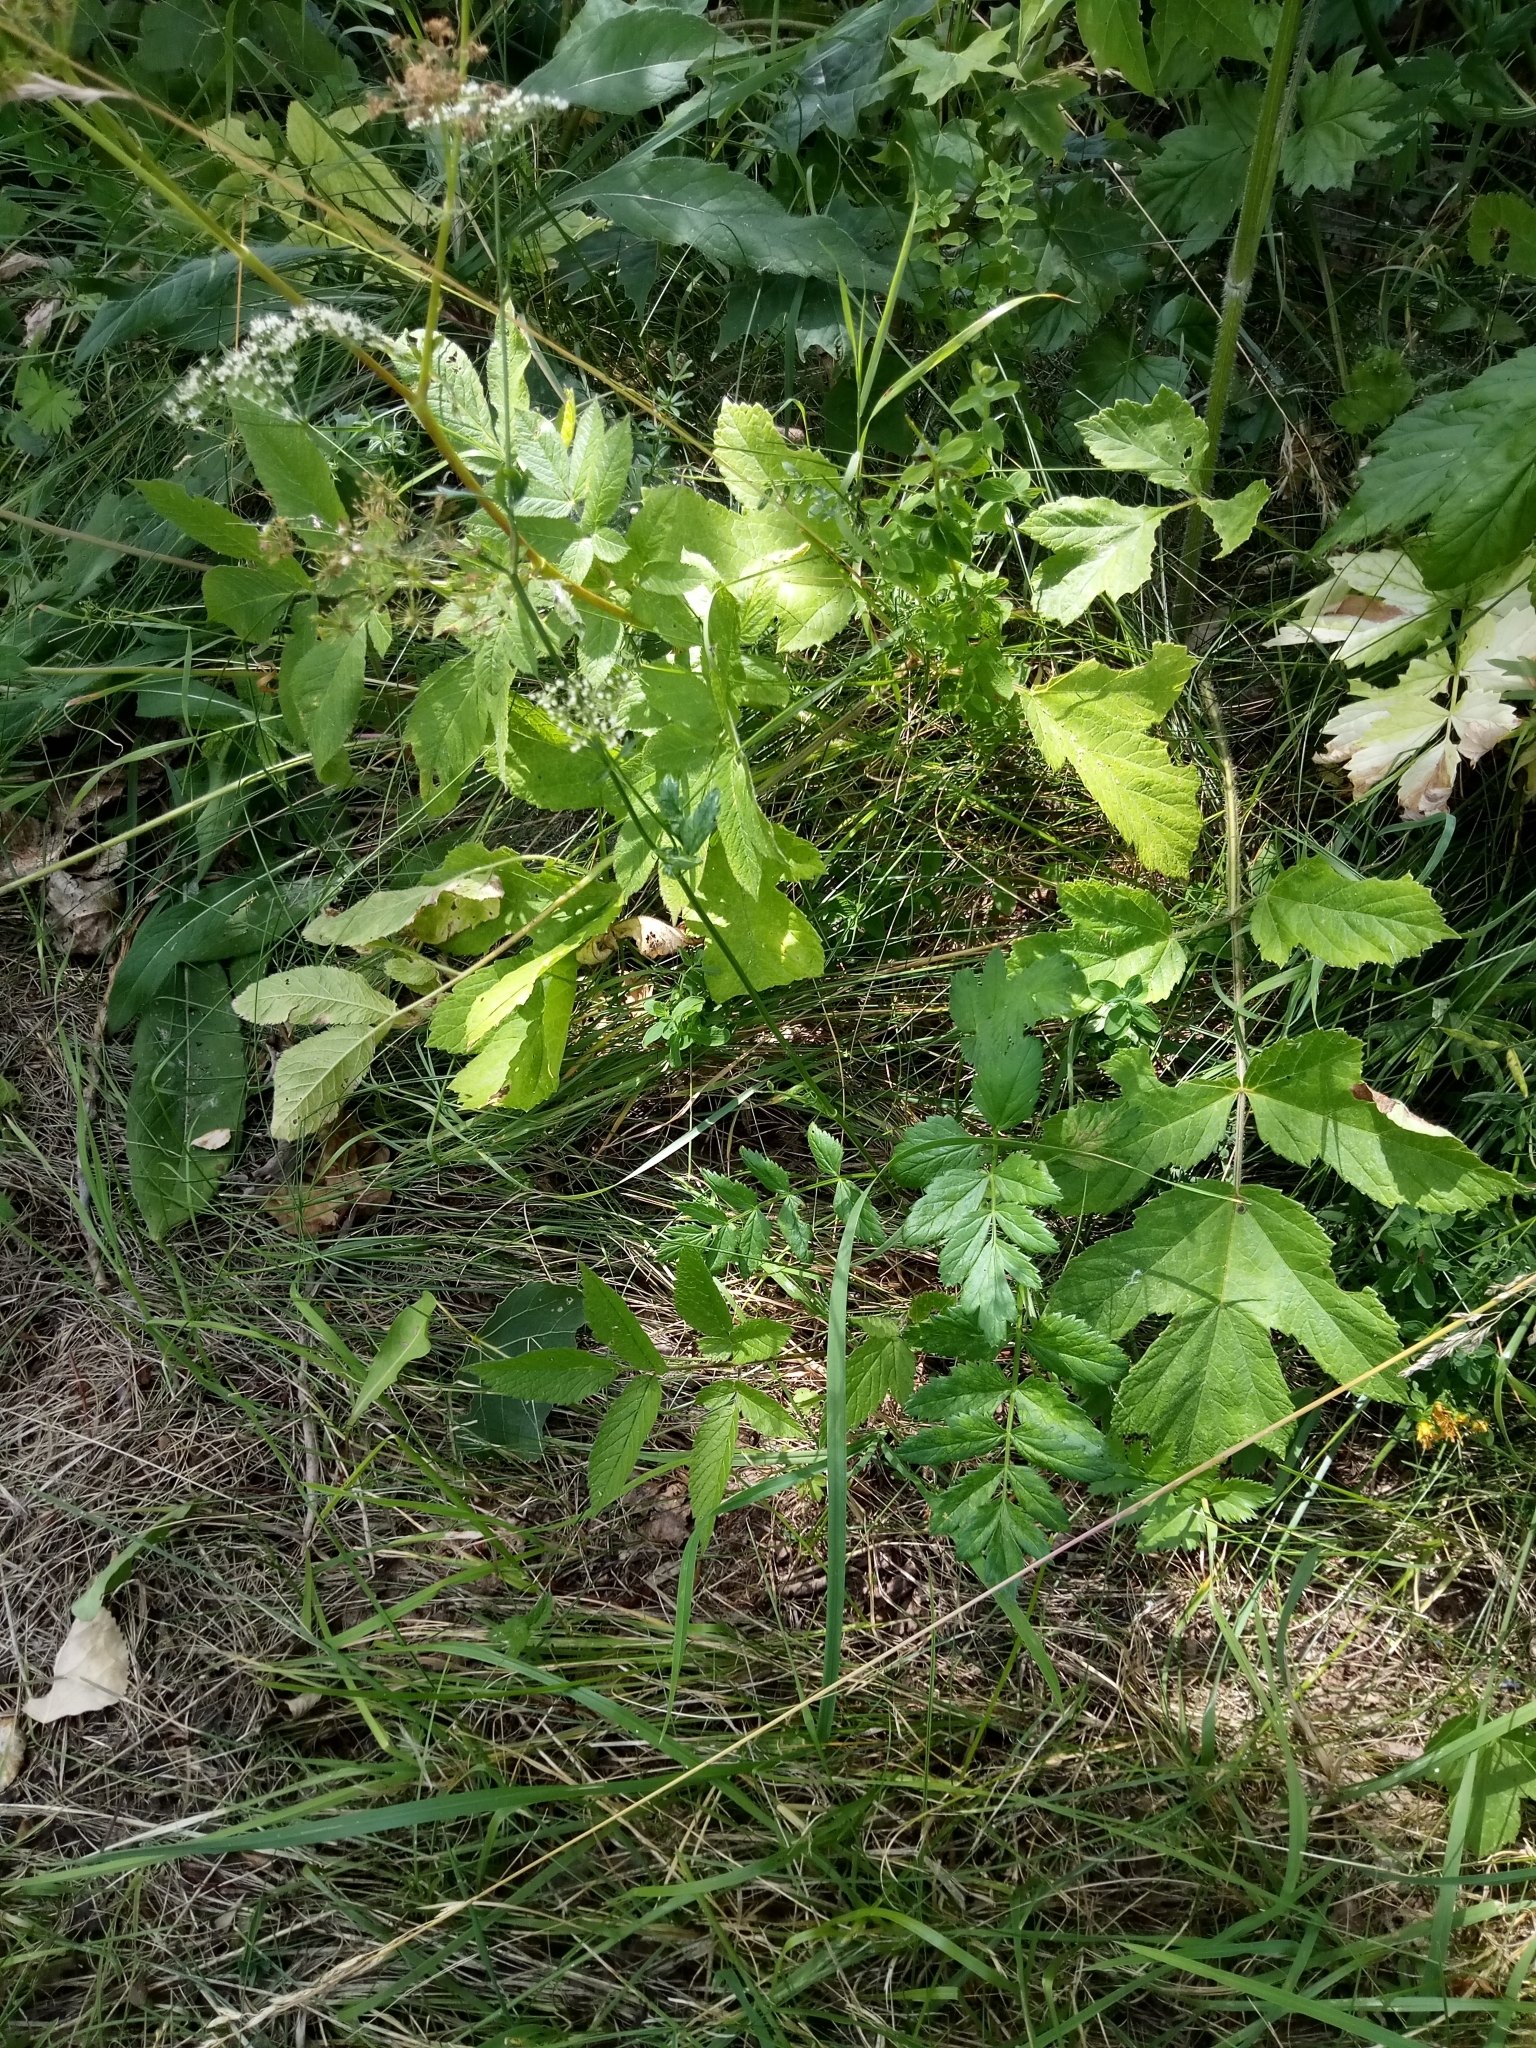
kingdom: Plantae
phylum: Tracheophyta
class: Magnoliopsida
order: Apiales
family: Apiaceae
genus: Heracleum
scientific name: Heracleum sphondylium
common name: Hogweed
